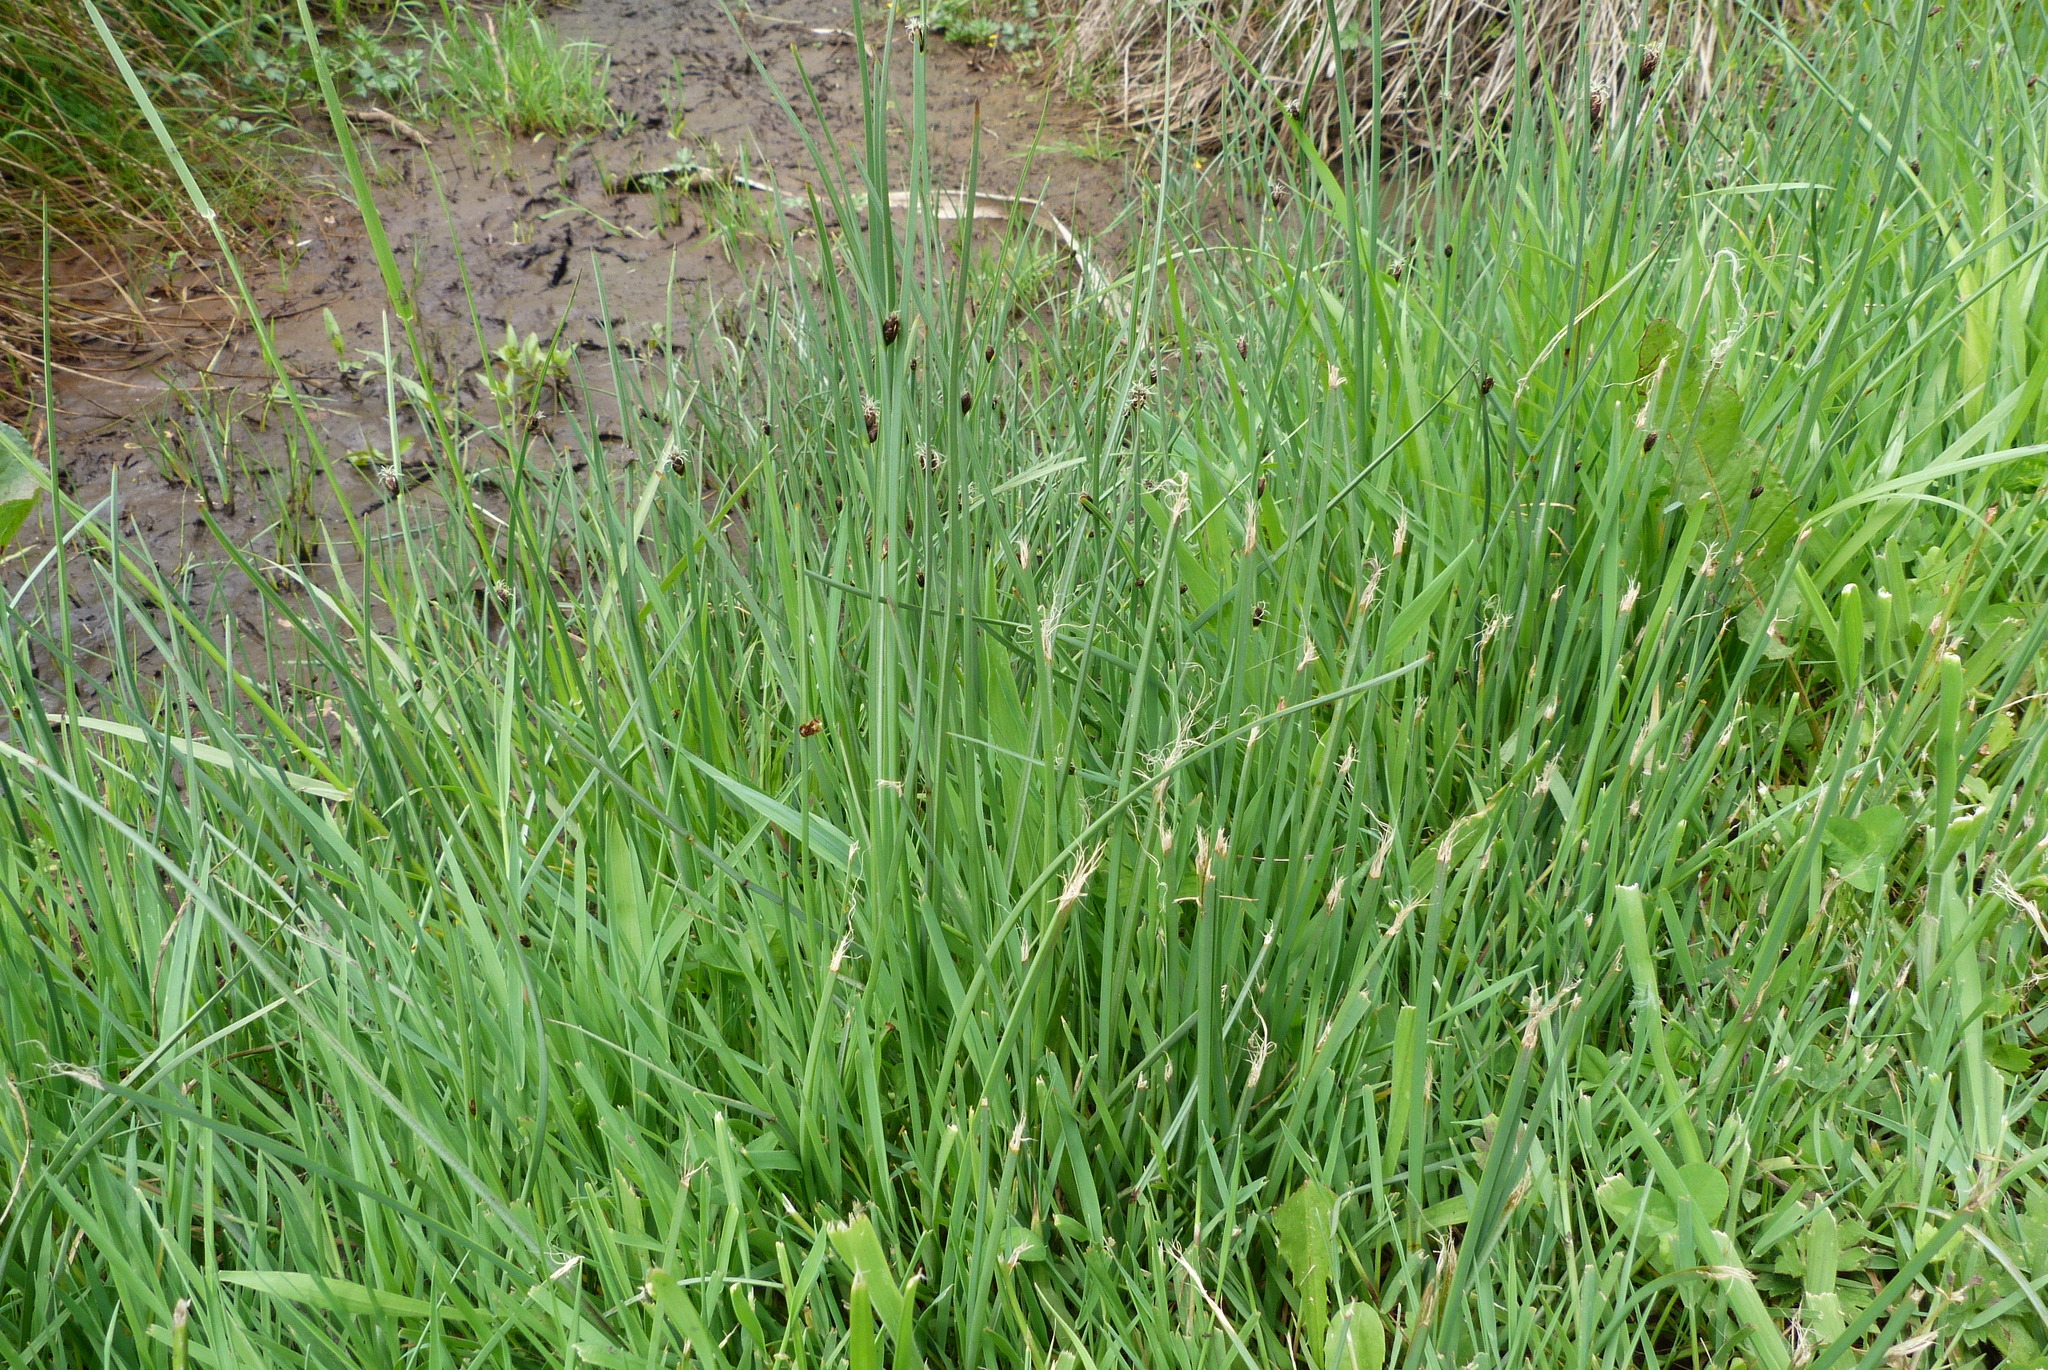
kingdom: Plantae
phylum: Tracheophyta
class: Liliopsida
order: Poales
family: Cyperaceae
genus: Schoenoplectus
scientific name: Schoenoplectus pungens
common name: Sharp club-rush
